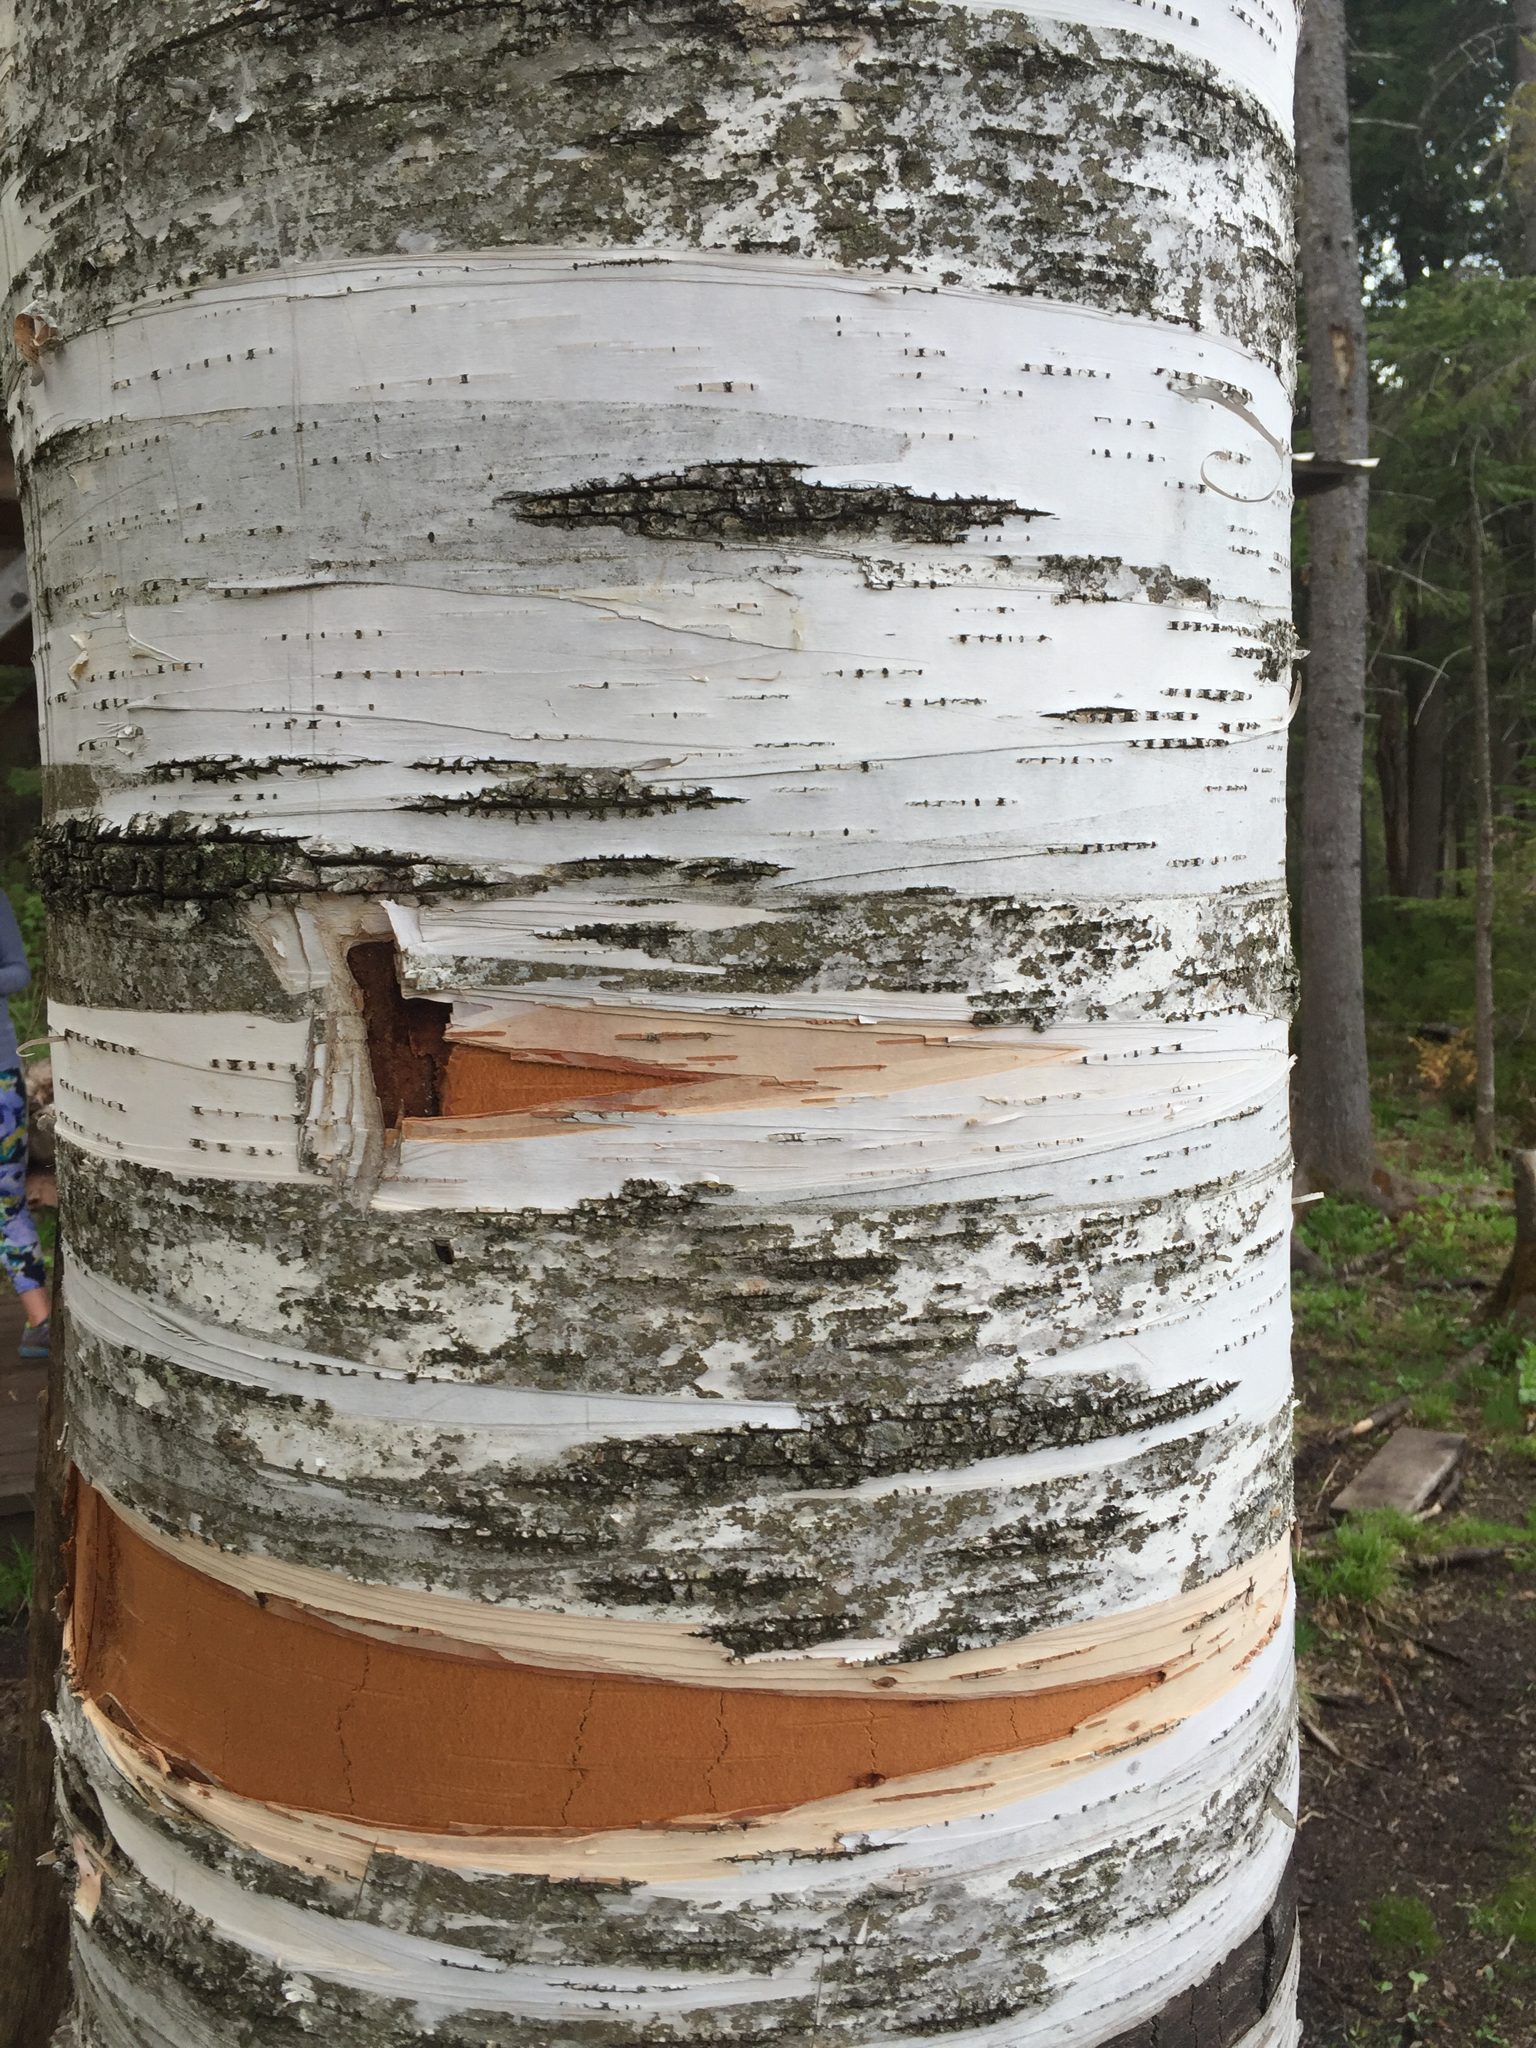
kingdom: Plantae
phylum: Tracheophyta
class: Magnoliopsida
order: Fagales
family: Betulaceae
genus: Betula
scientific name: Betula papyrifera
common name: Paper birch
